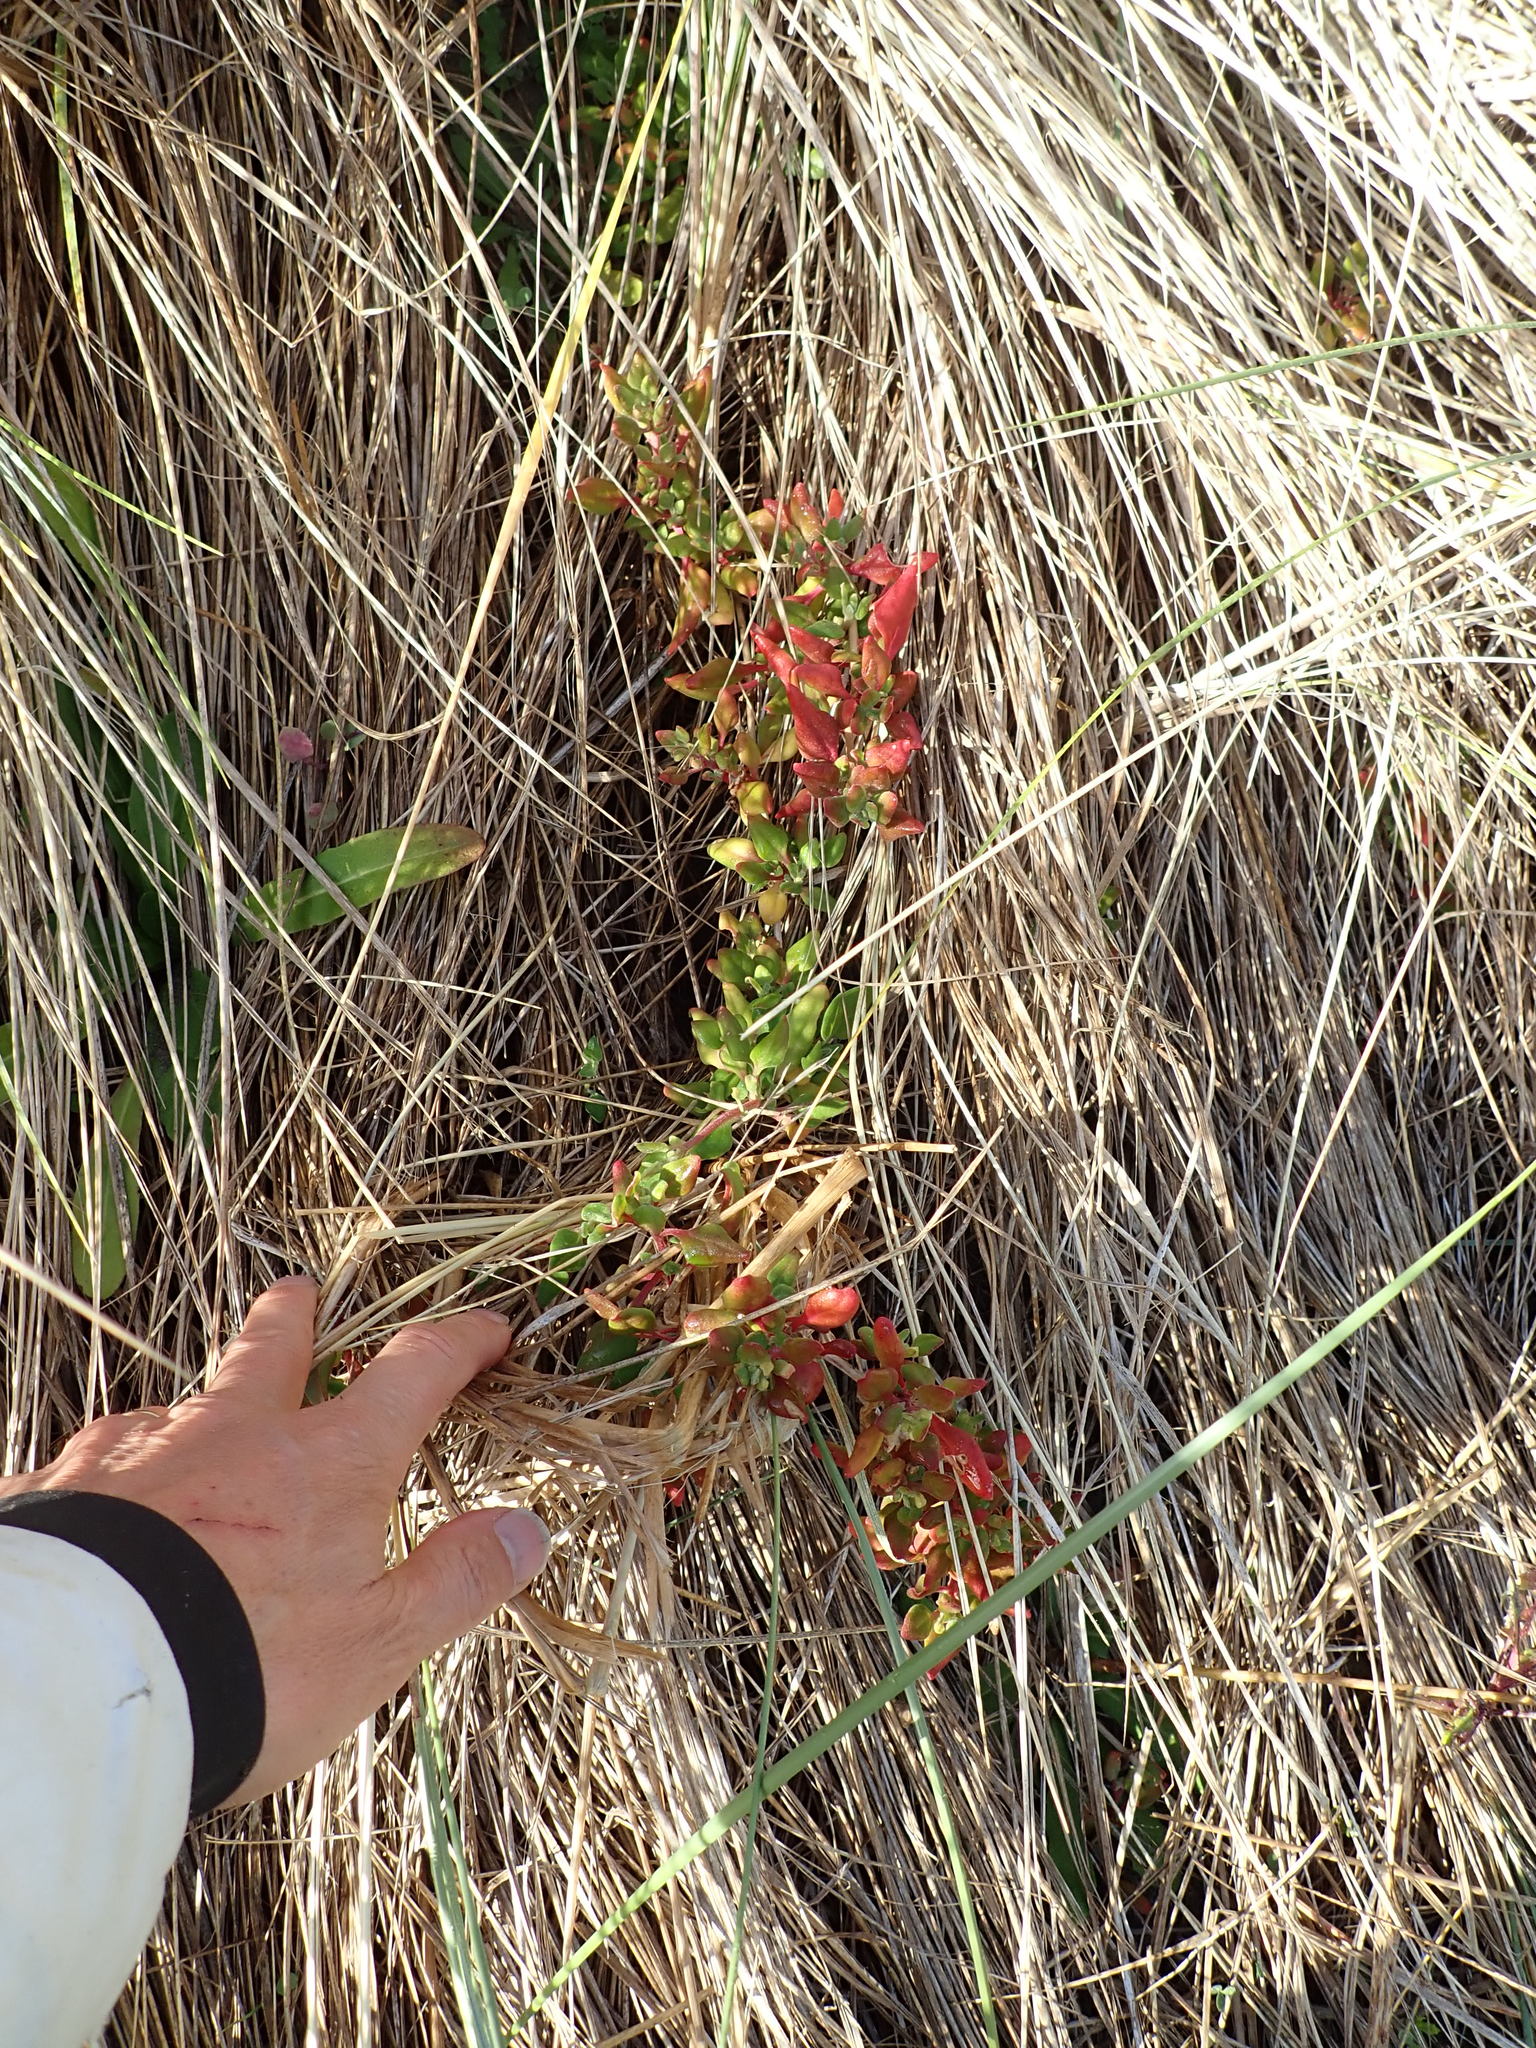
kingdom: Plantae
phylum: Tracheophyta
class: Magnoliopsida
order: Caryophyllales
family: Aizoaceae
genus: Tetragonia
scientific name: Tetragonia implexicoma
